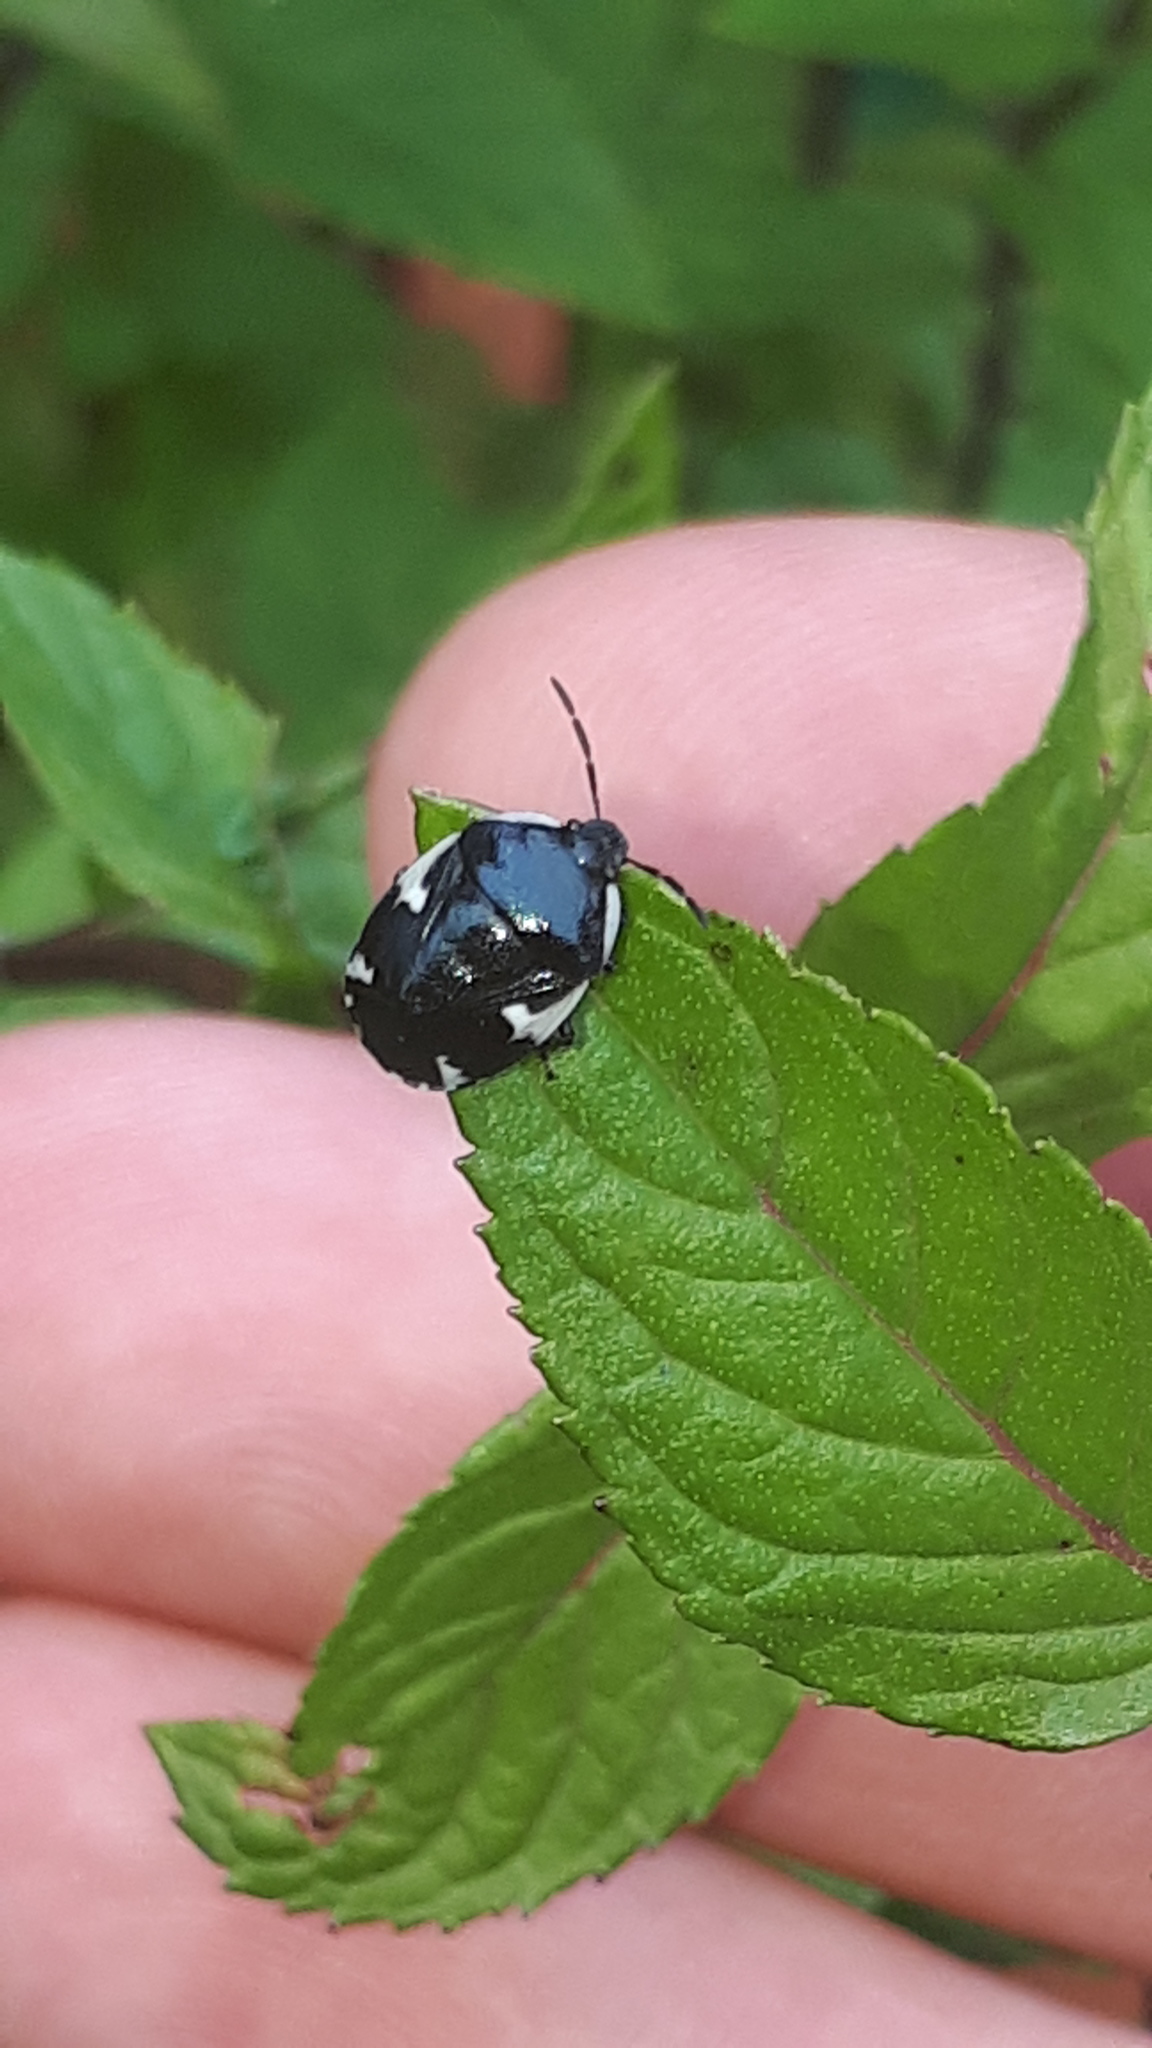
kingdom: Animalia
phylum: Arthropoda
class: Insecta
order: Hemiptera
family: Cydnidae
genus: Tritomegas
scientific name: Tritomegas sexmaculatus
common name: Rambur's pied shieldbug
